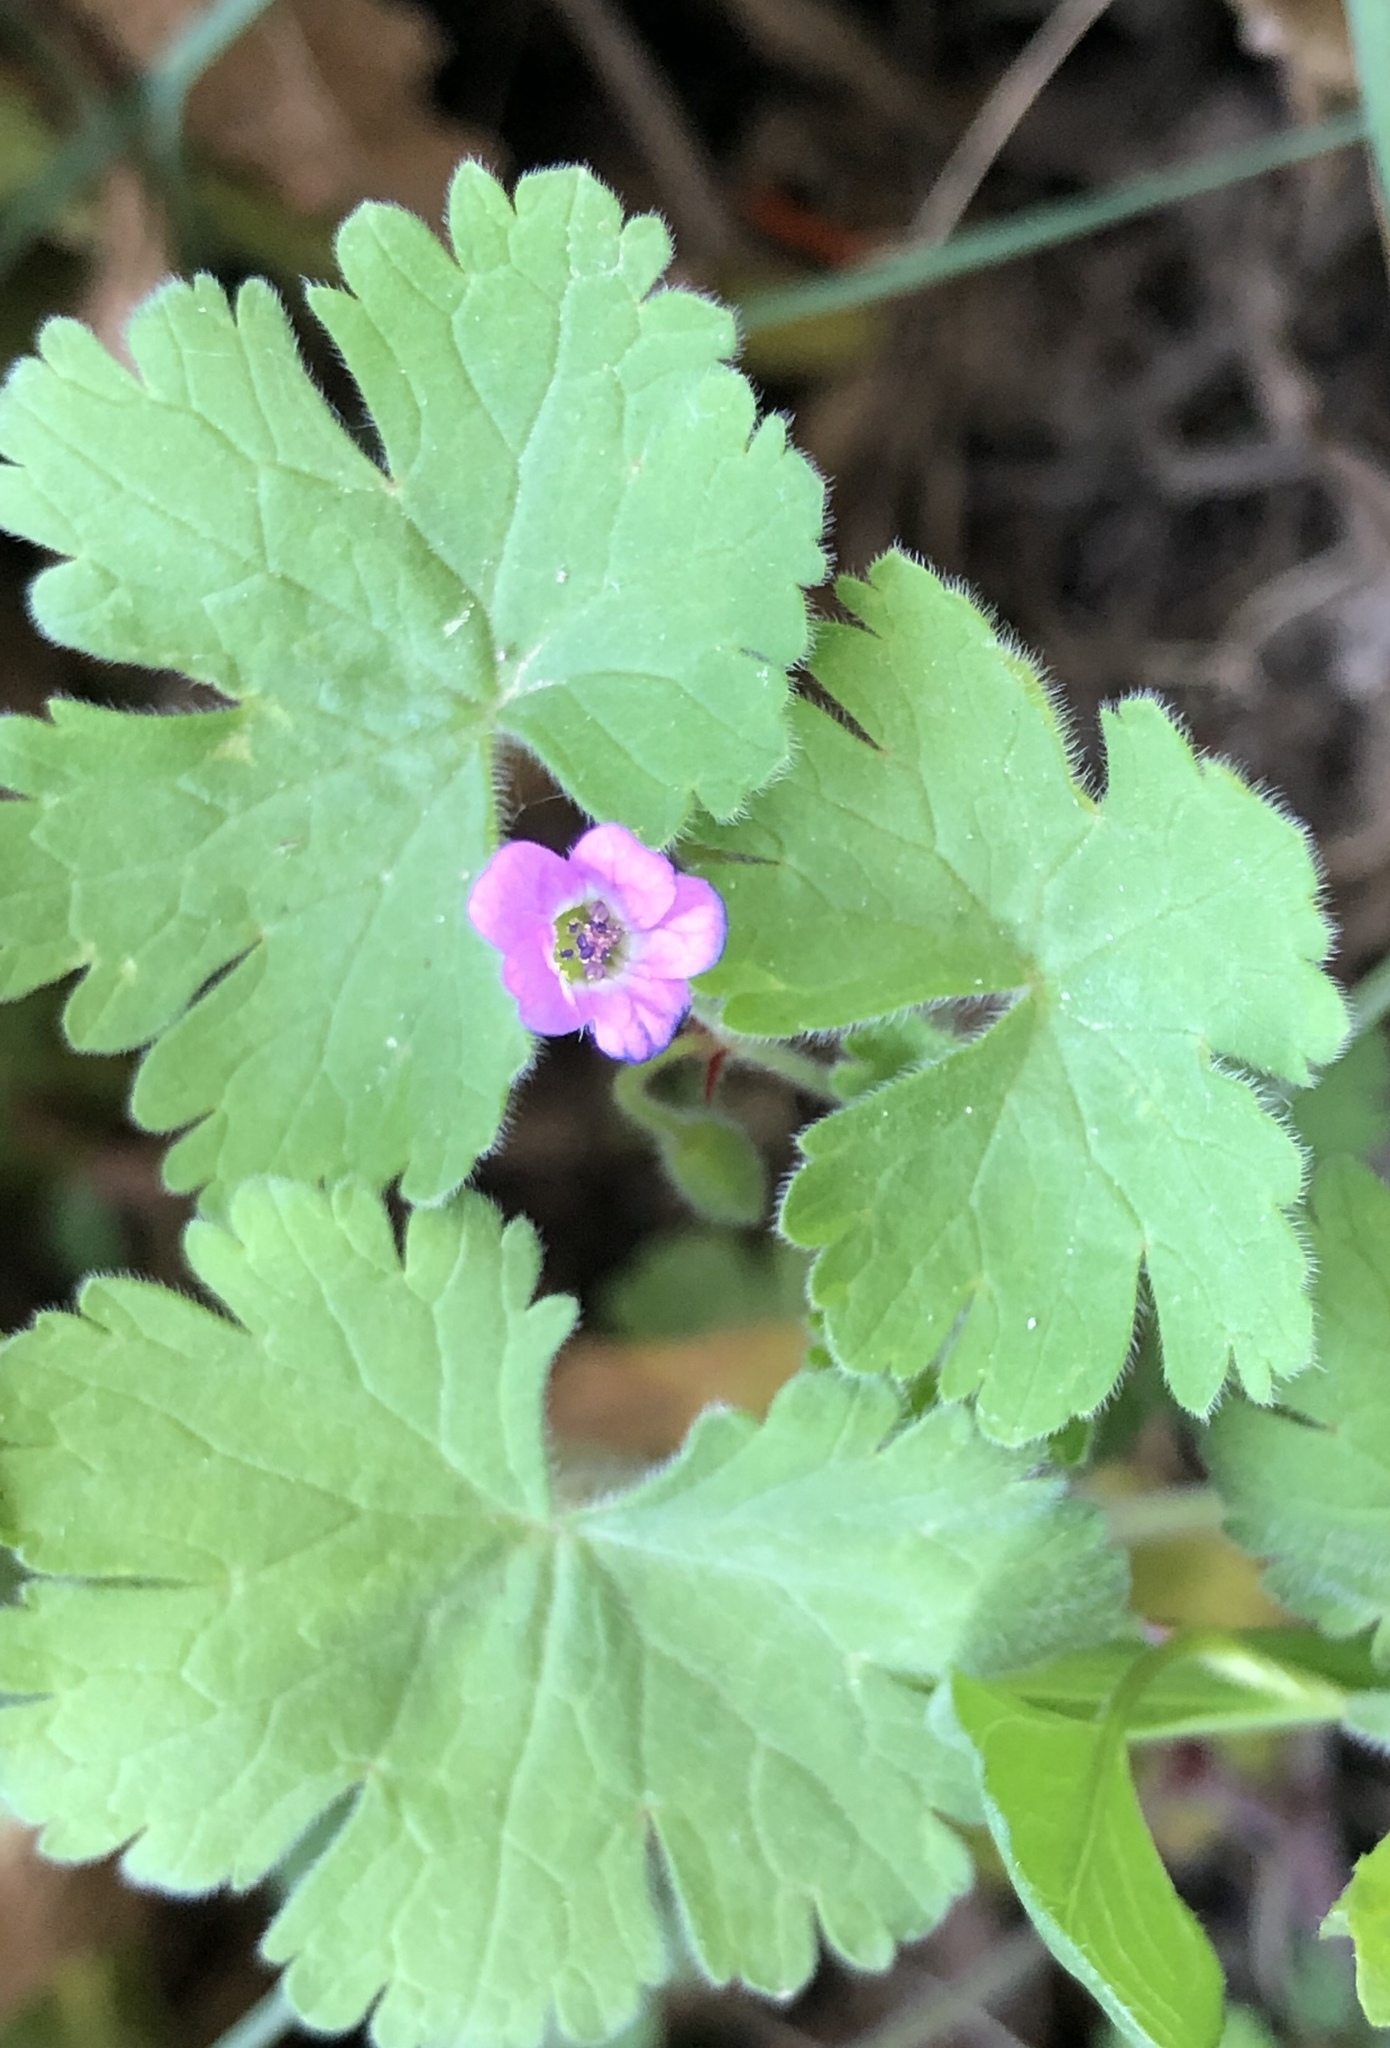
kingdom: Plantae
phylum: Tracheophyta
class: Magnoliopsida
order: Geraniales
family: Geraniaceae
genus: Geranium
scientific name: Geranium rotundifolium
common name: Round-leaved crane's-bill
